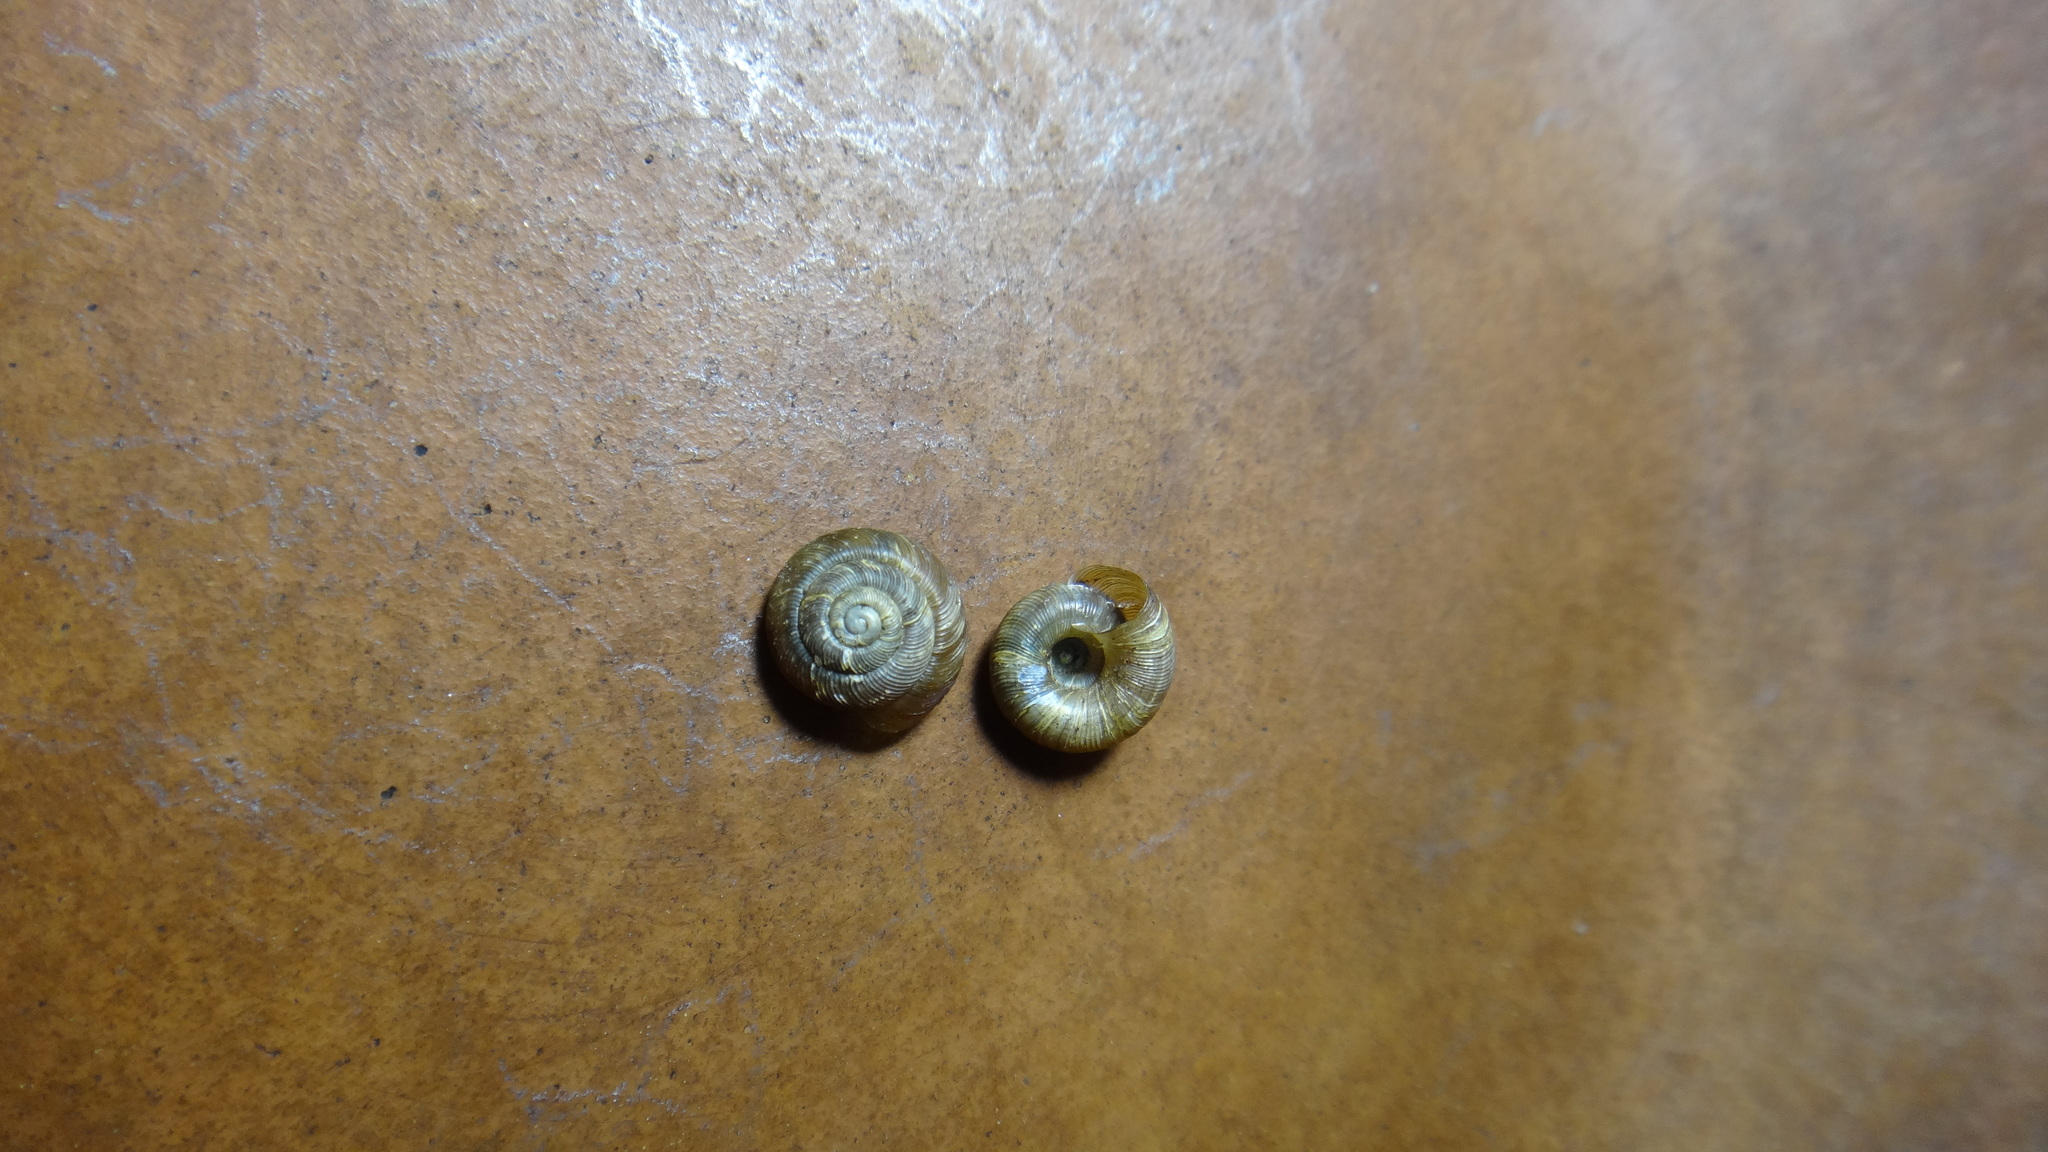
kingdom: Animalia
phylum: Mollusca
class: Gastropoda
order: Stylommatophora
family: Discidae
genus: Discus
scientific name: Discus ruderatus
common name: Brown disc snail
